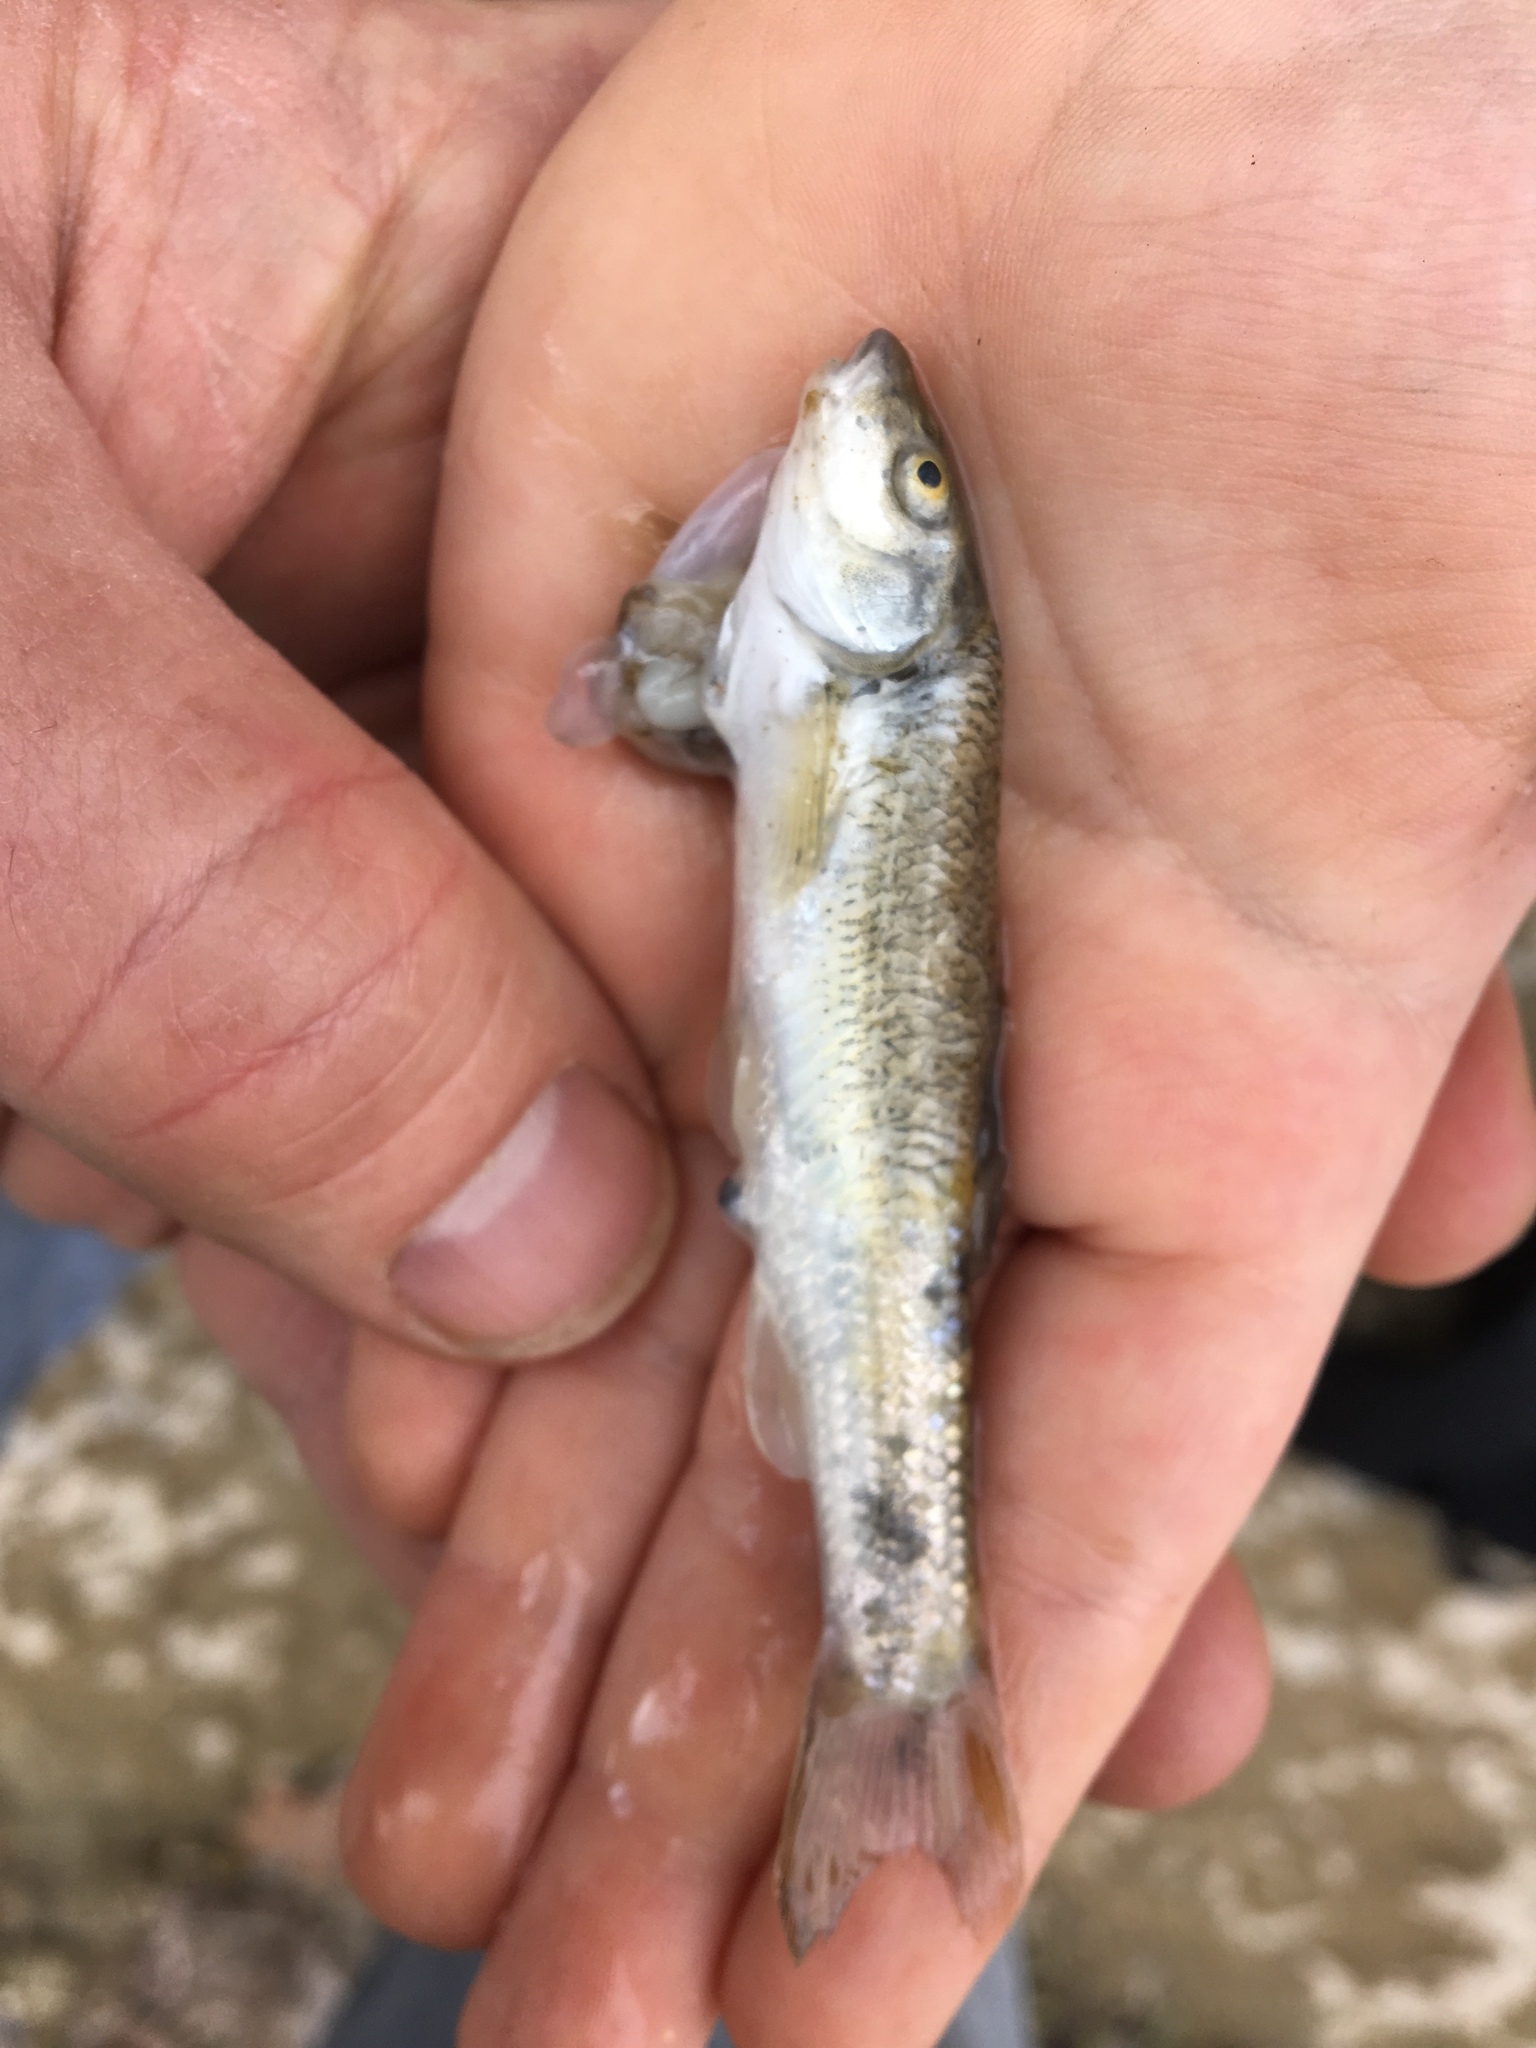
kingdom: Animalia
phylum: Chordata
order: Cypriniformes
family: Cyprinidae
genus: Campostoma
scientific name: Campostoma anomalum
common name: Central stoneroller
